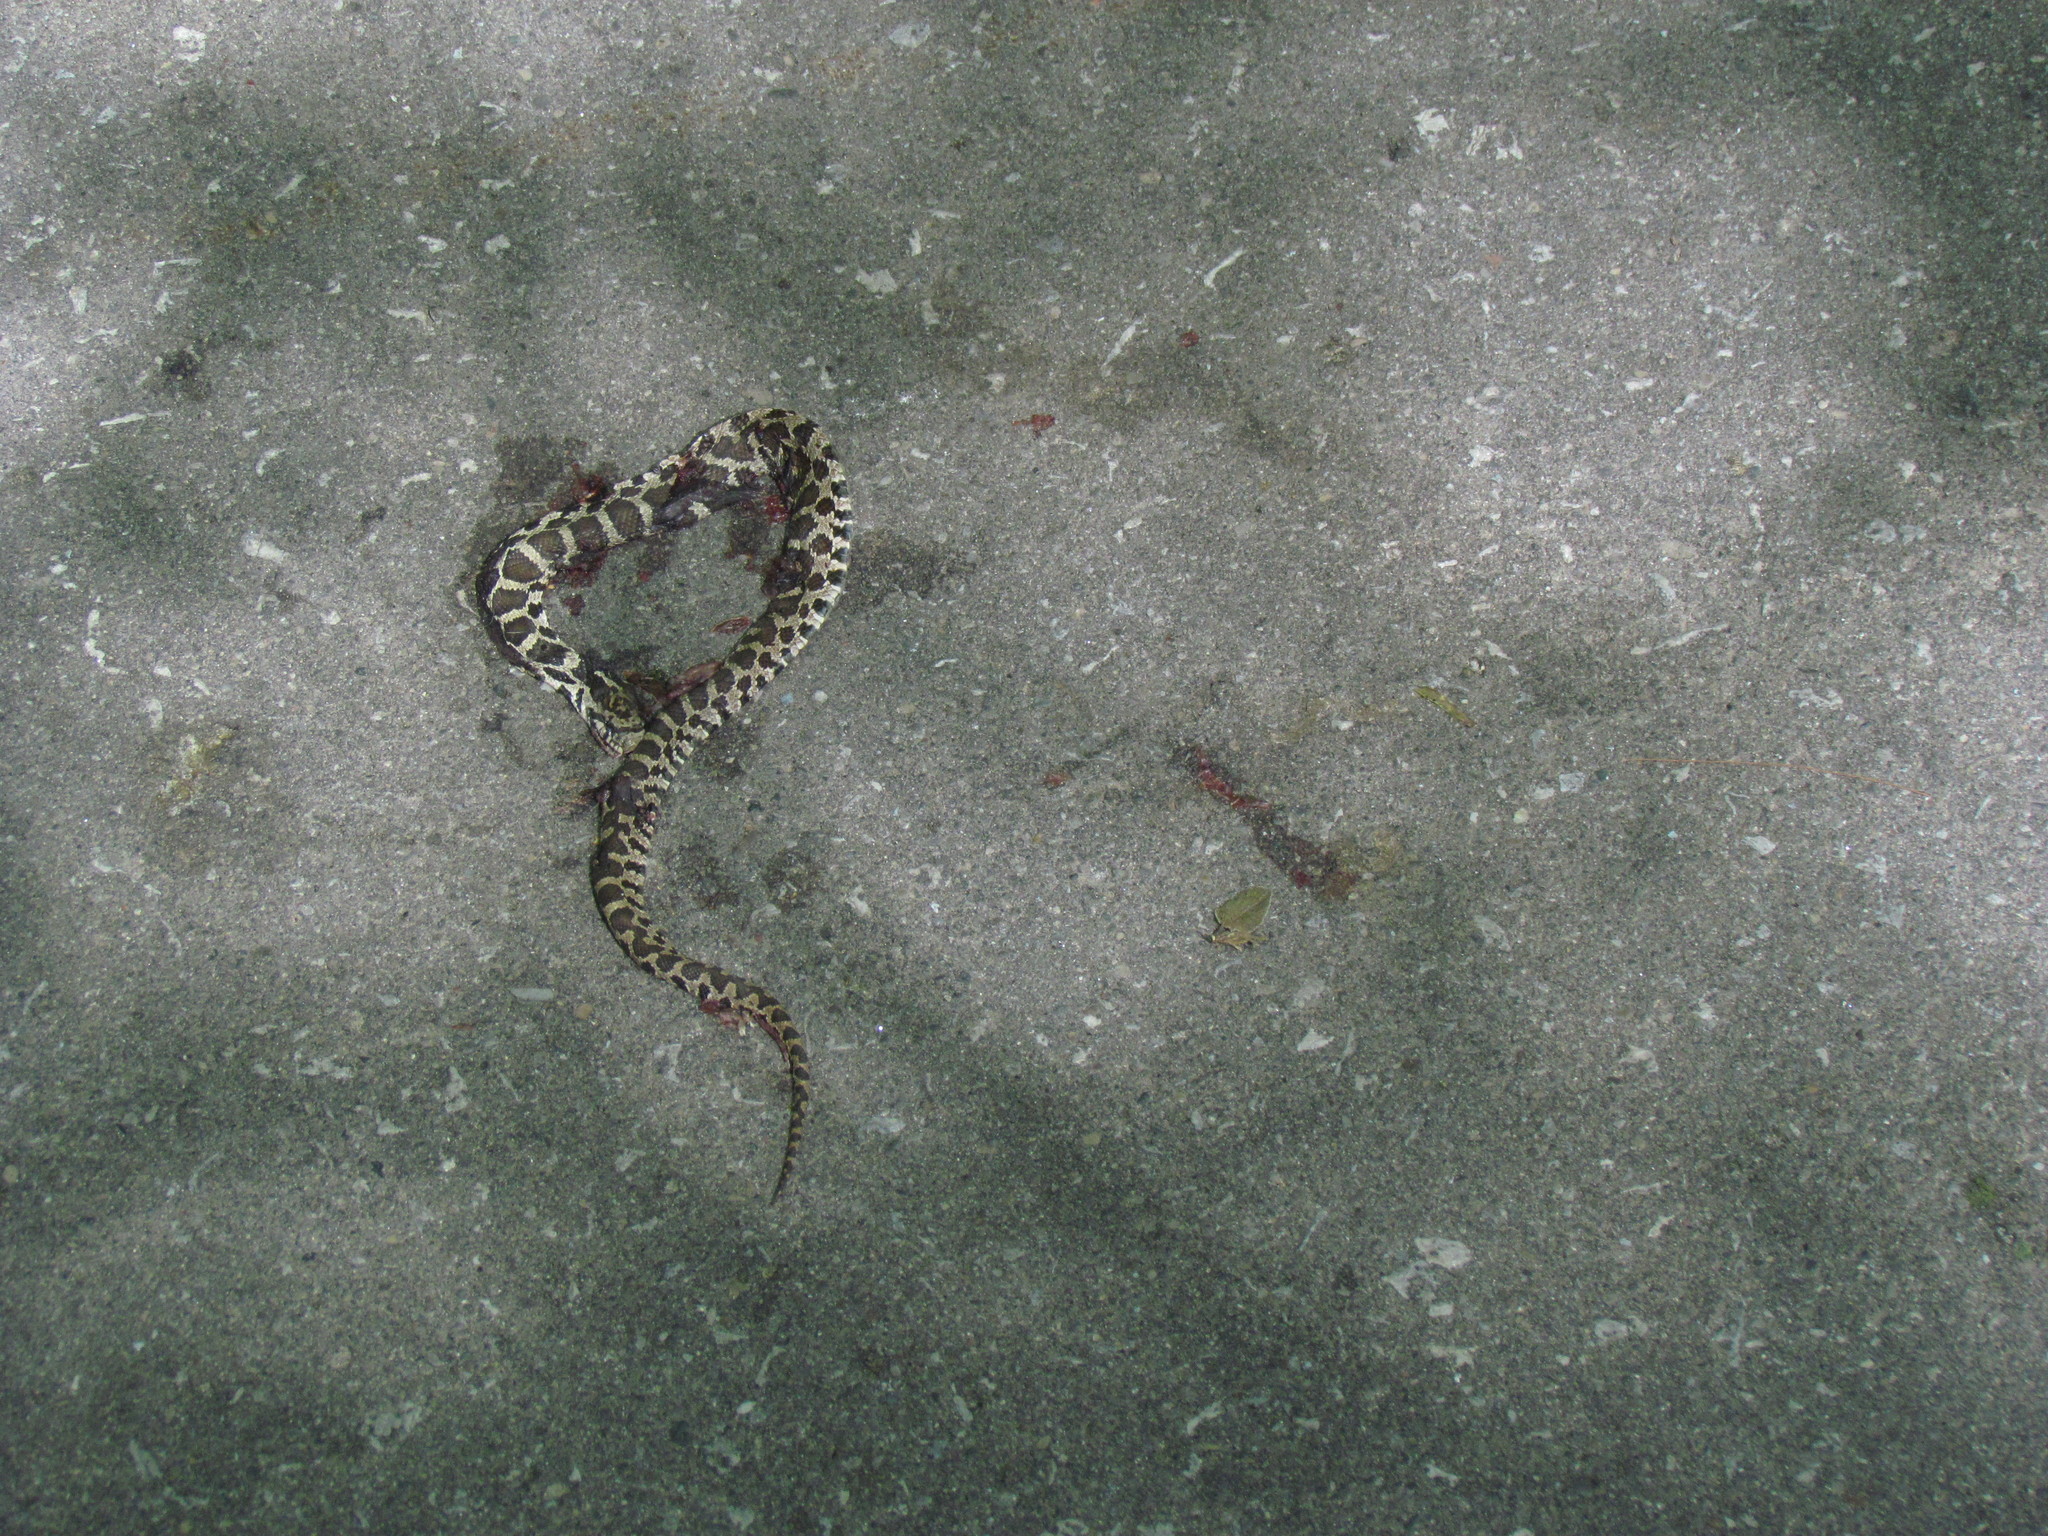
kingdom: Animalia
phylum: Chordata
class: Squamata
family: Colubridae
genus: Pantherophis
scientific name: Pantherophis vulpinus
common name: Eastern fox snake
